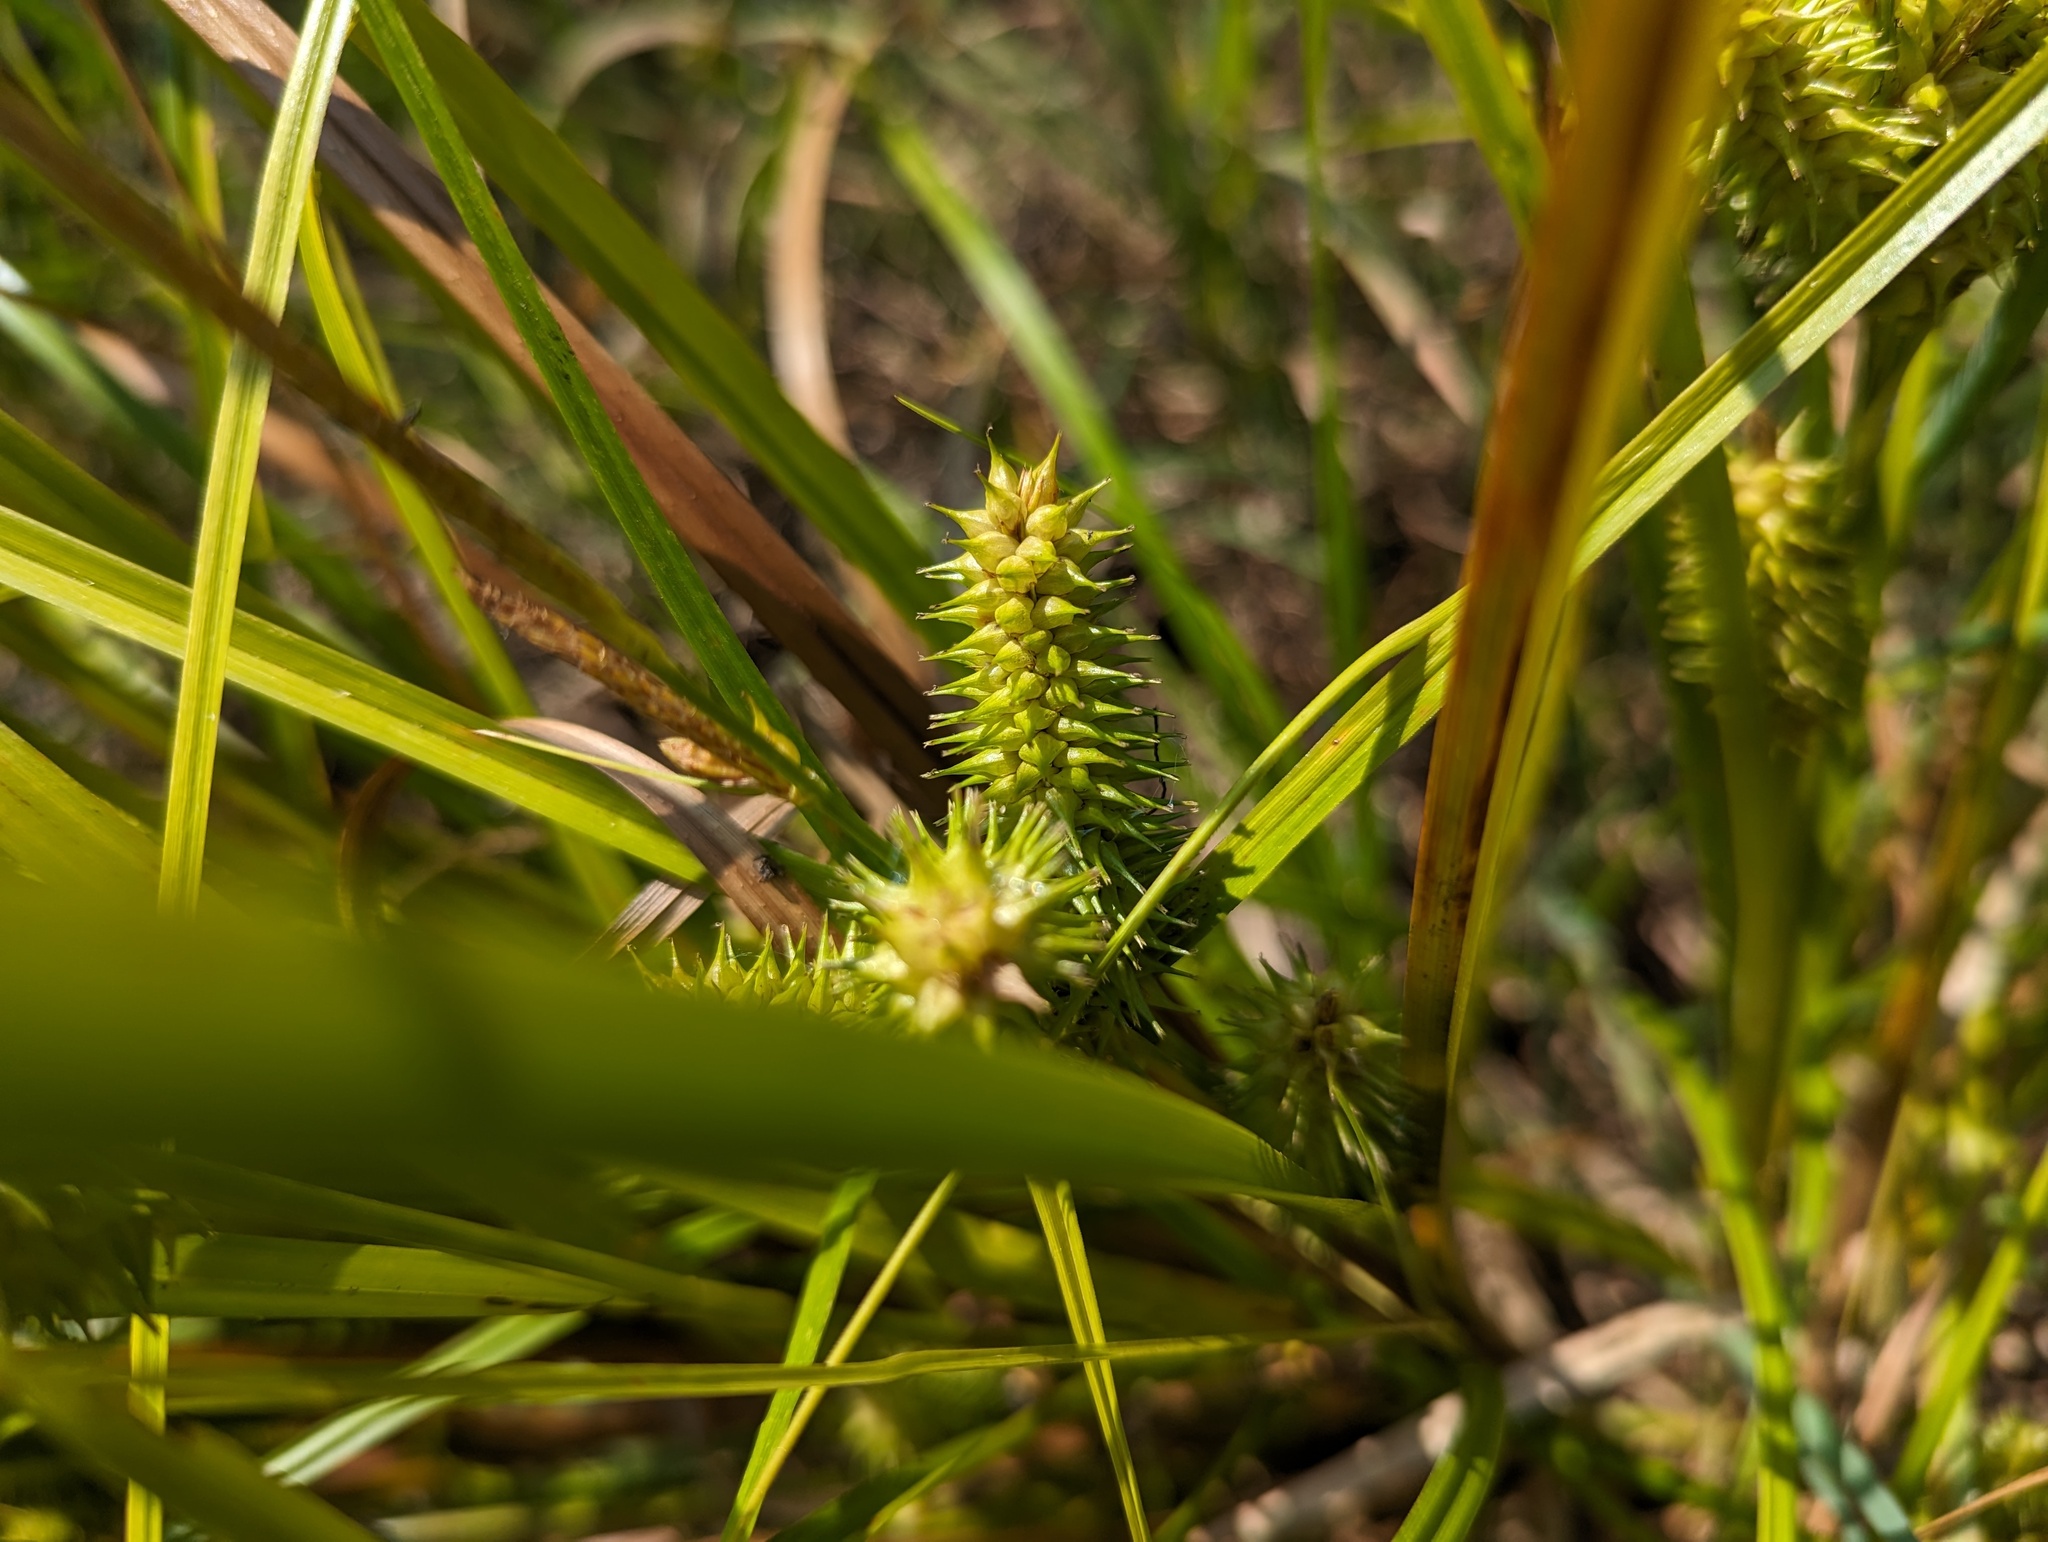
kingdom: Plantae
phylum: Tracheophyta
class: Liliopsida
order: Poales
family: Cyperaceae
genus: Carex
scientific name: Carex retrorsa
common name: Knot-sheath sedge
